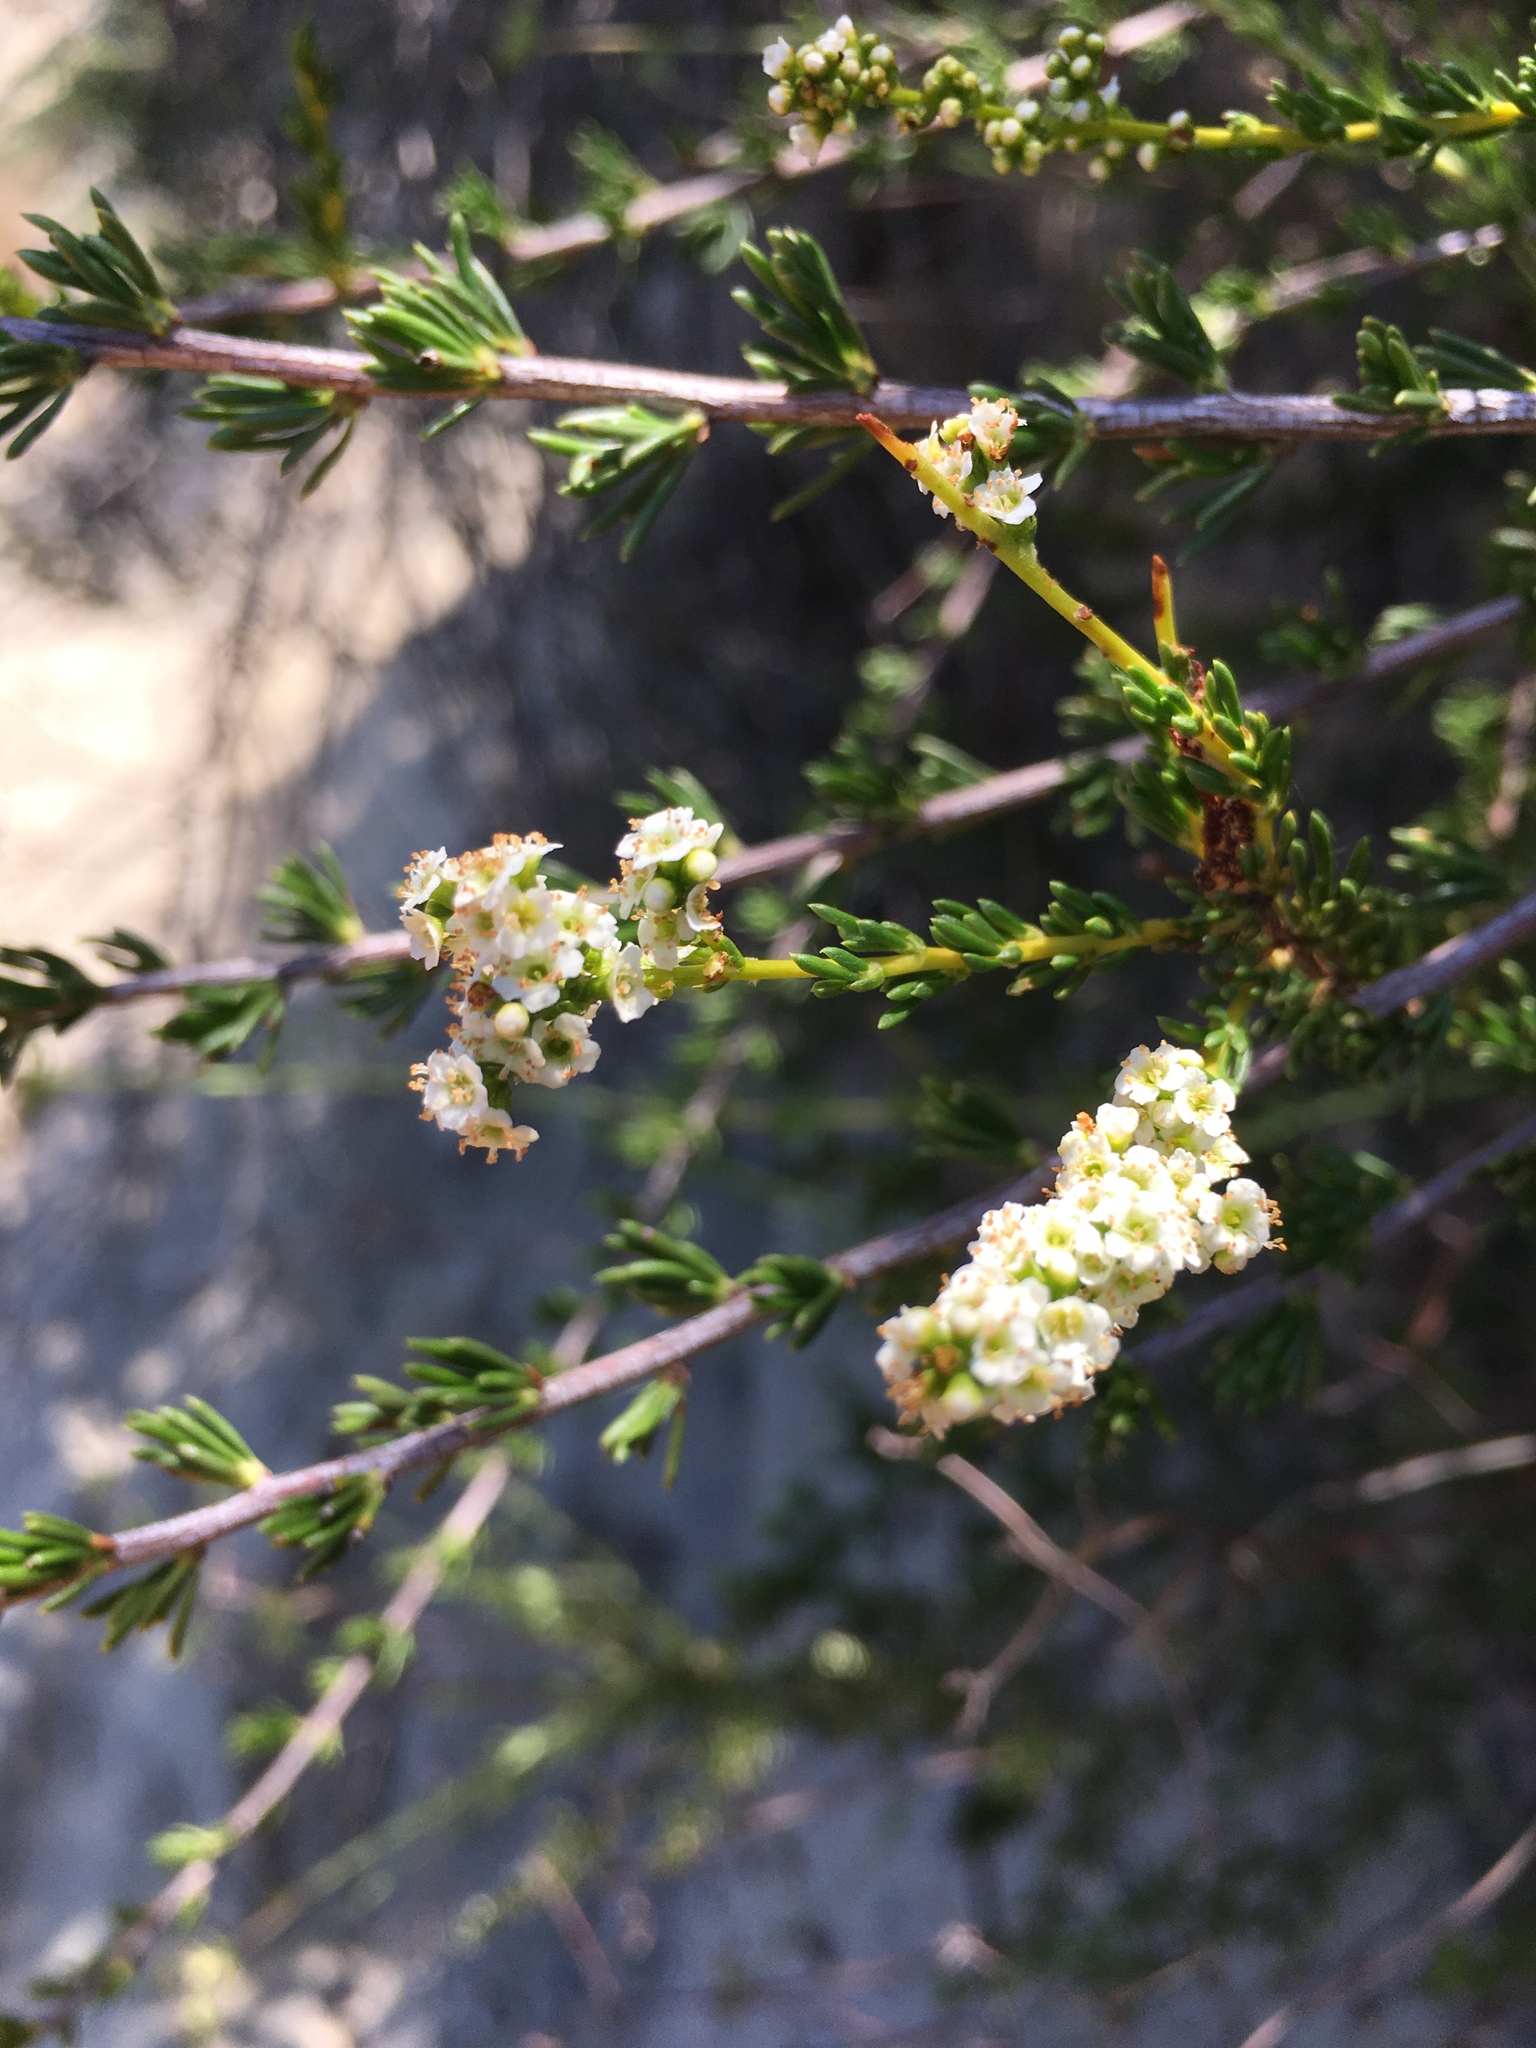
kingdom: Plantae
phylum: Tracheophyta
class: Magnoliopsida
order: Rosales
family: Rosaceae
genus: Adenostoma
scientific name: Adenostoma fasciculatum
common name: Chamise
